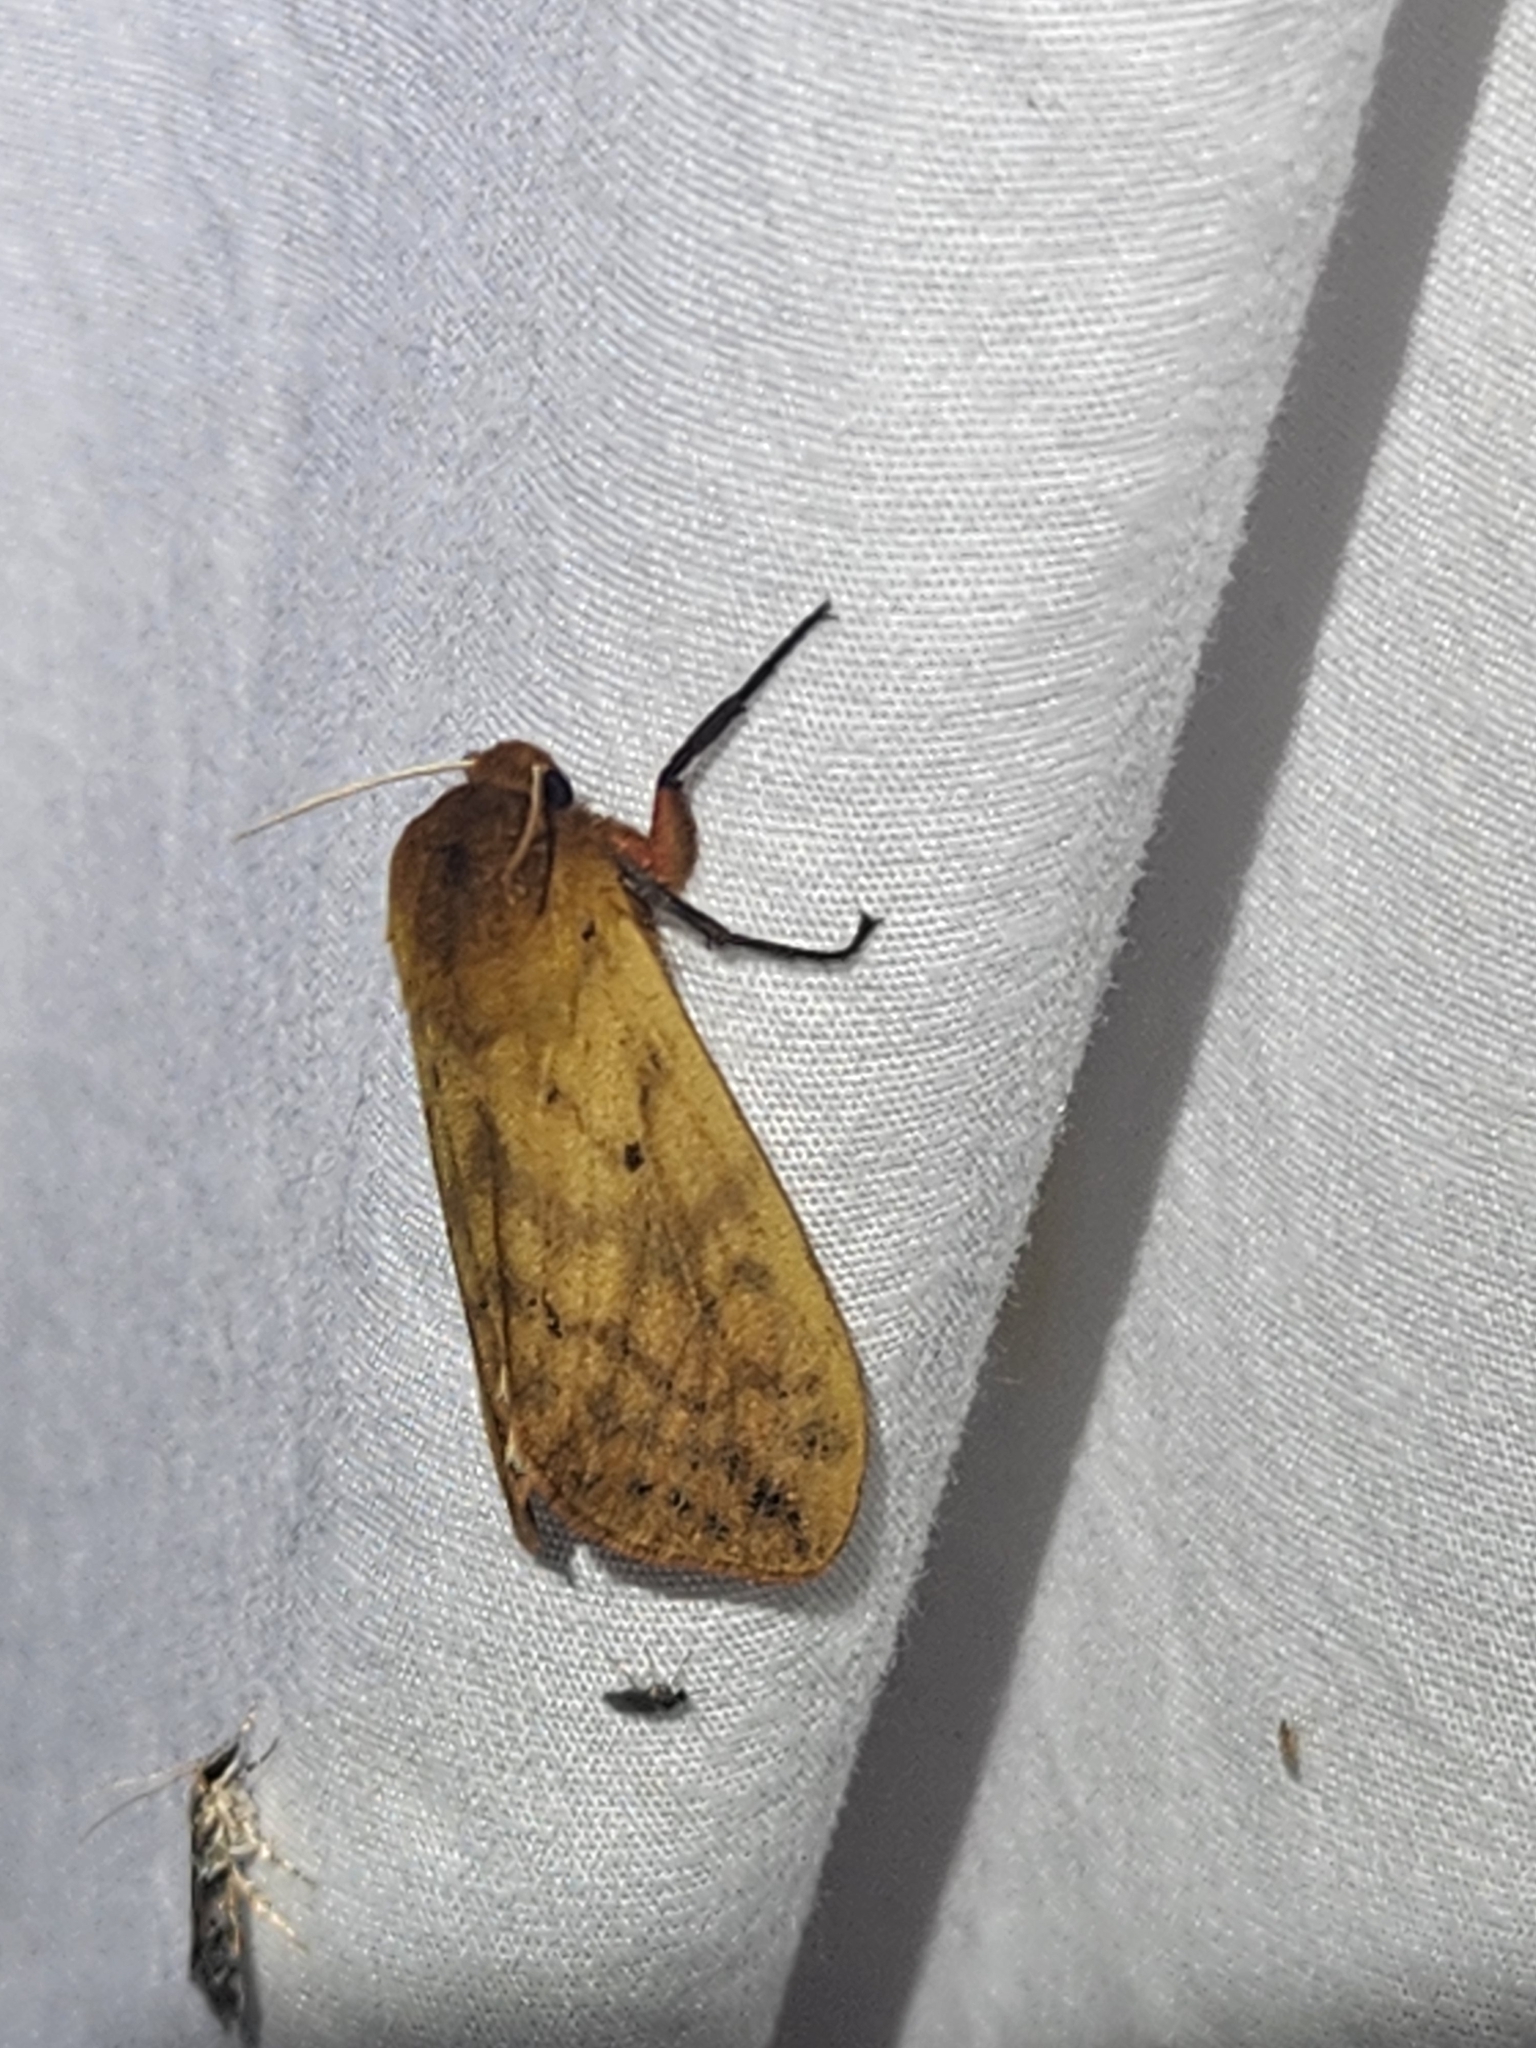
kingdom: Animalia
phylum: Arthropoda
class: Insecta
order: Lepidoptera
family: Erebidae
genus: Pyrrharctia
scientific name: Pyrrharctia isabella
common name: Isabella tiger moth
